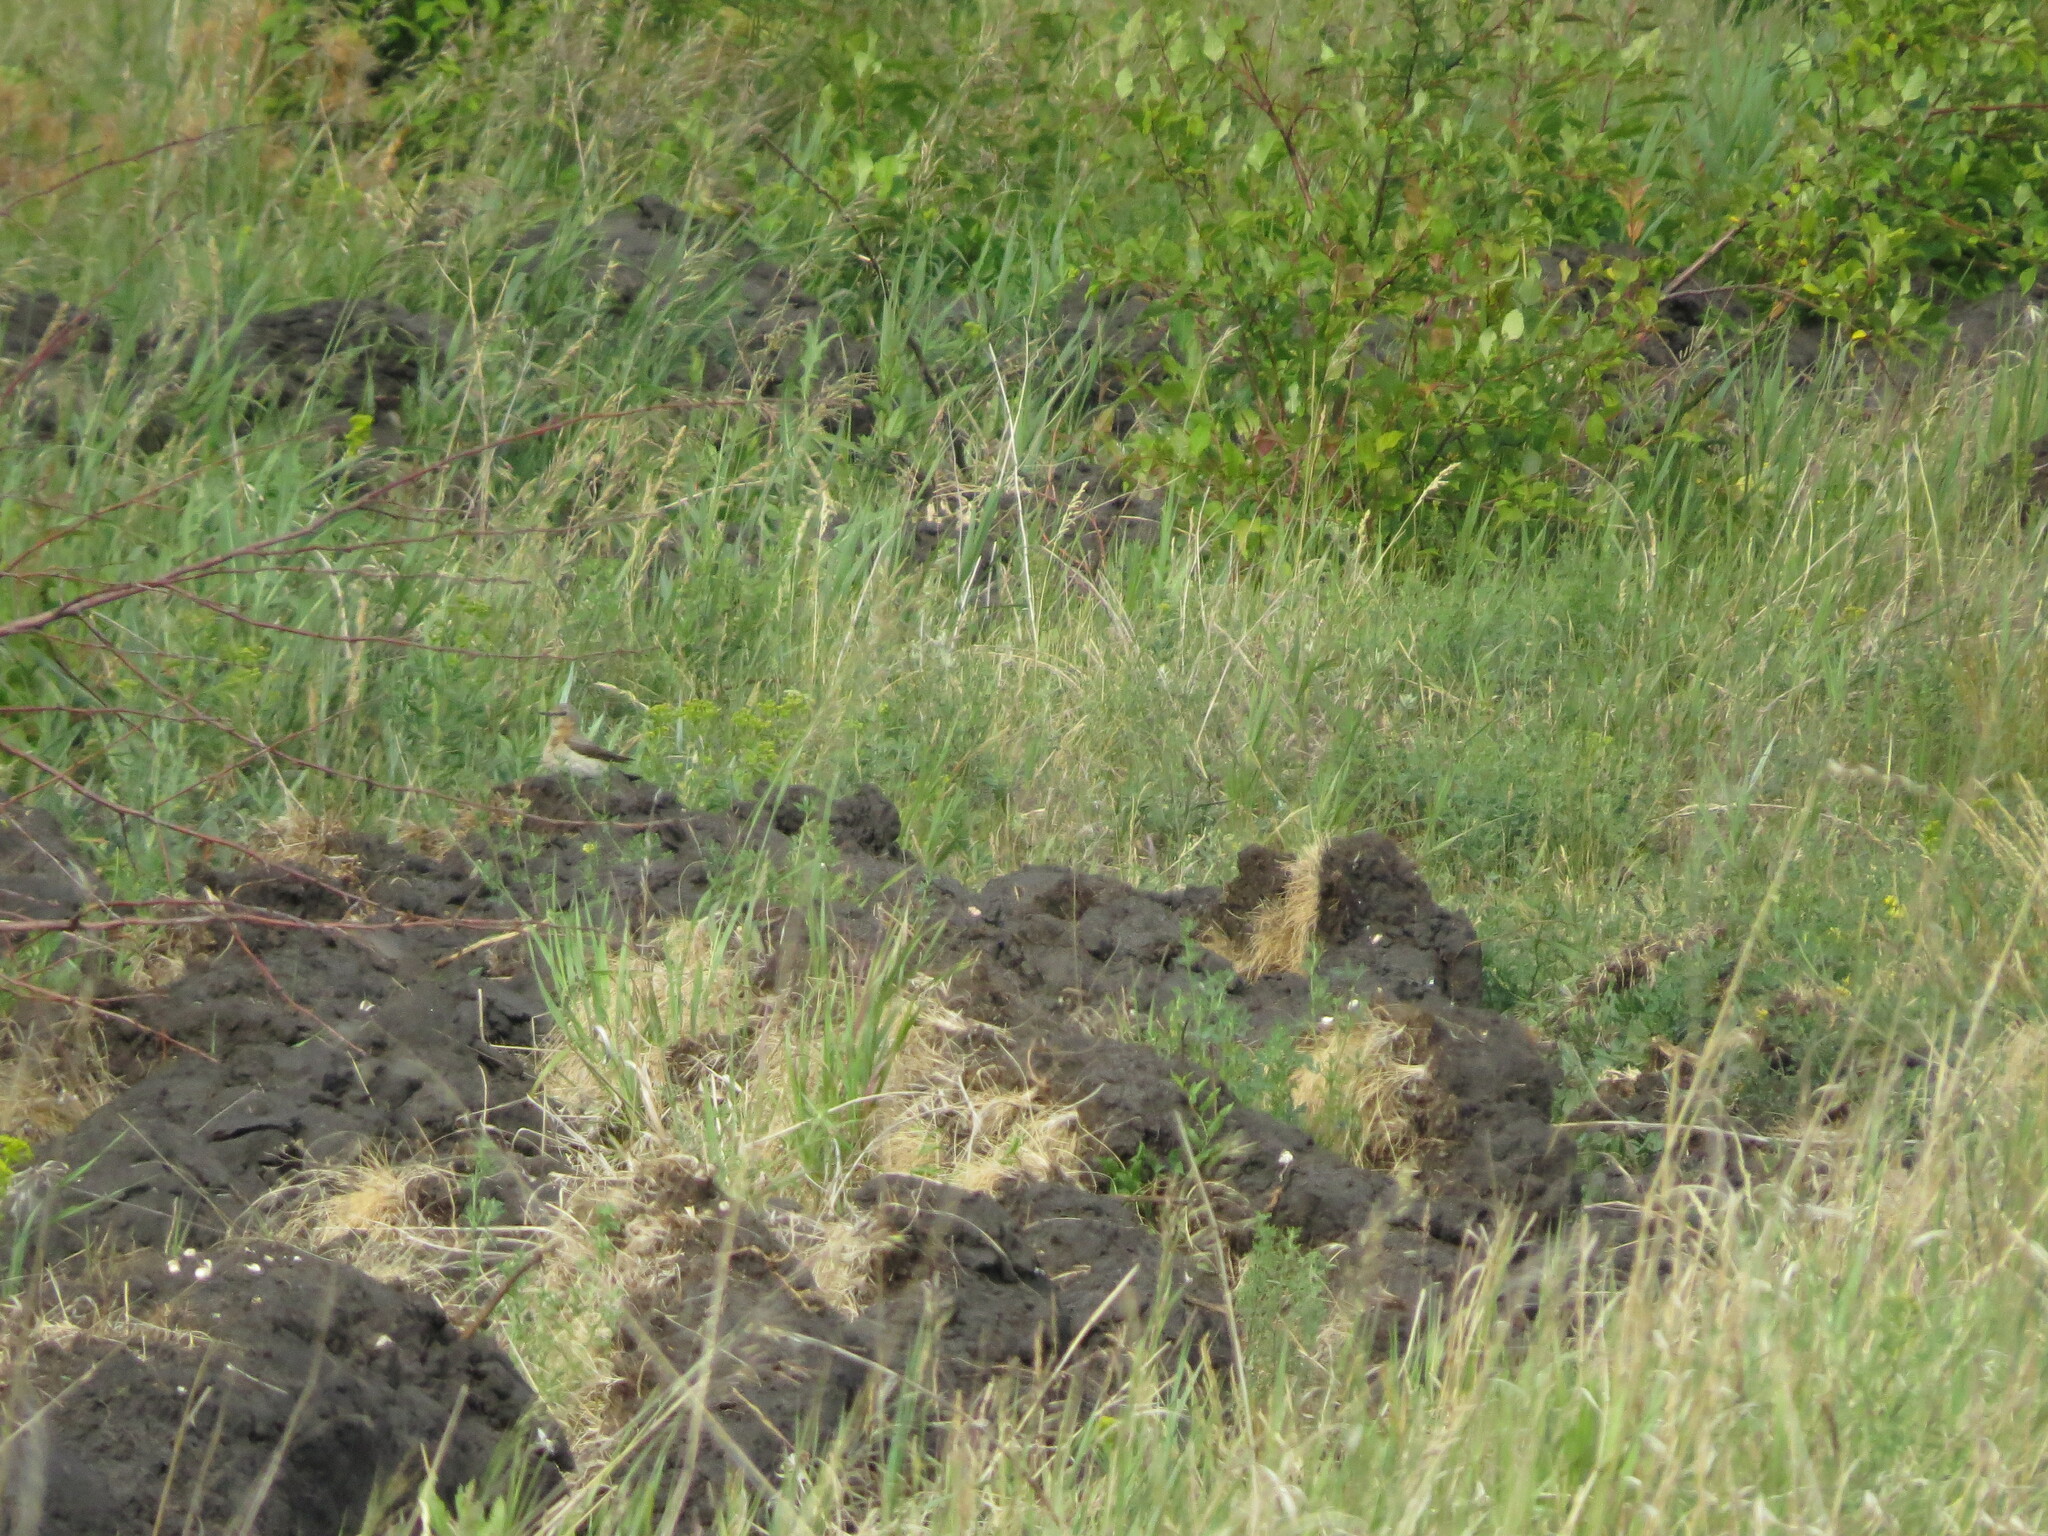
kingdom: Animalia
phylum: Chordata
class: Aves
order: Passeriformes
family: Muscicapidae
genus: Oenanthe
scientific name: Oenanthe oenanthe
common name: Northern wheatear
